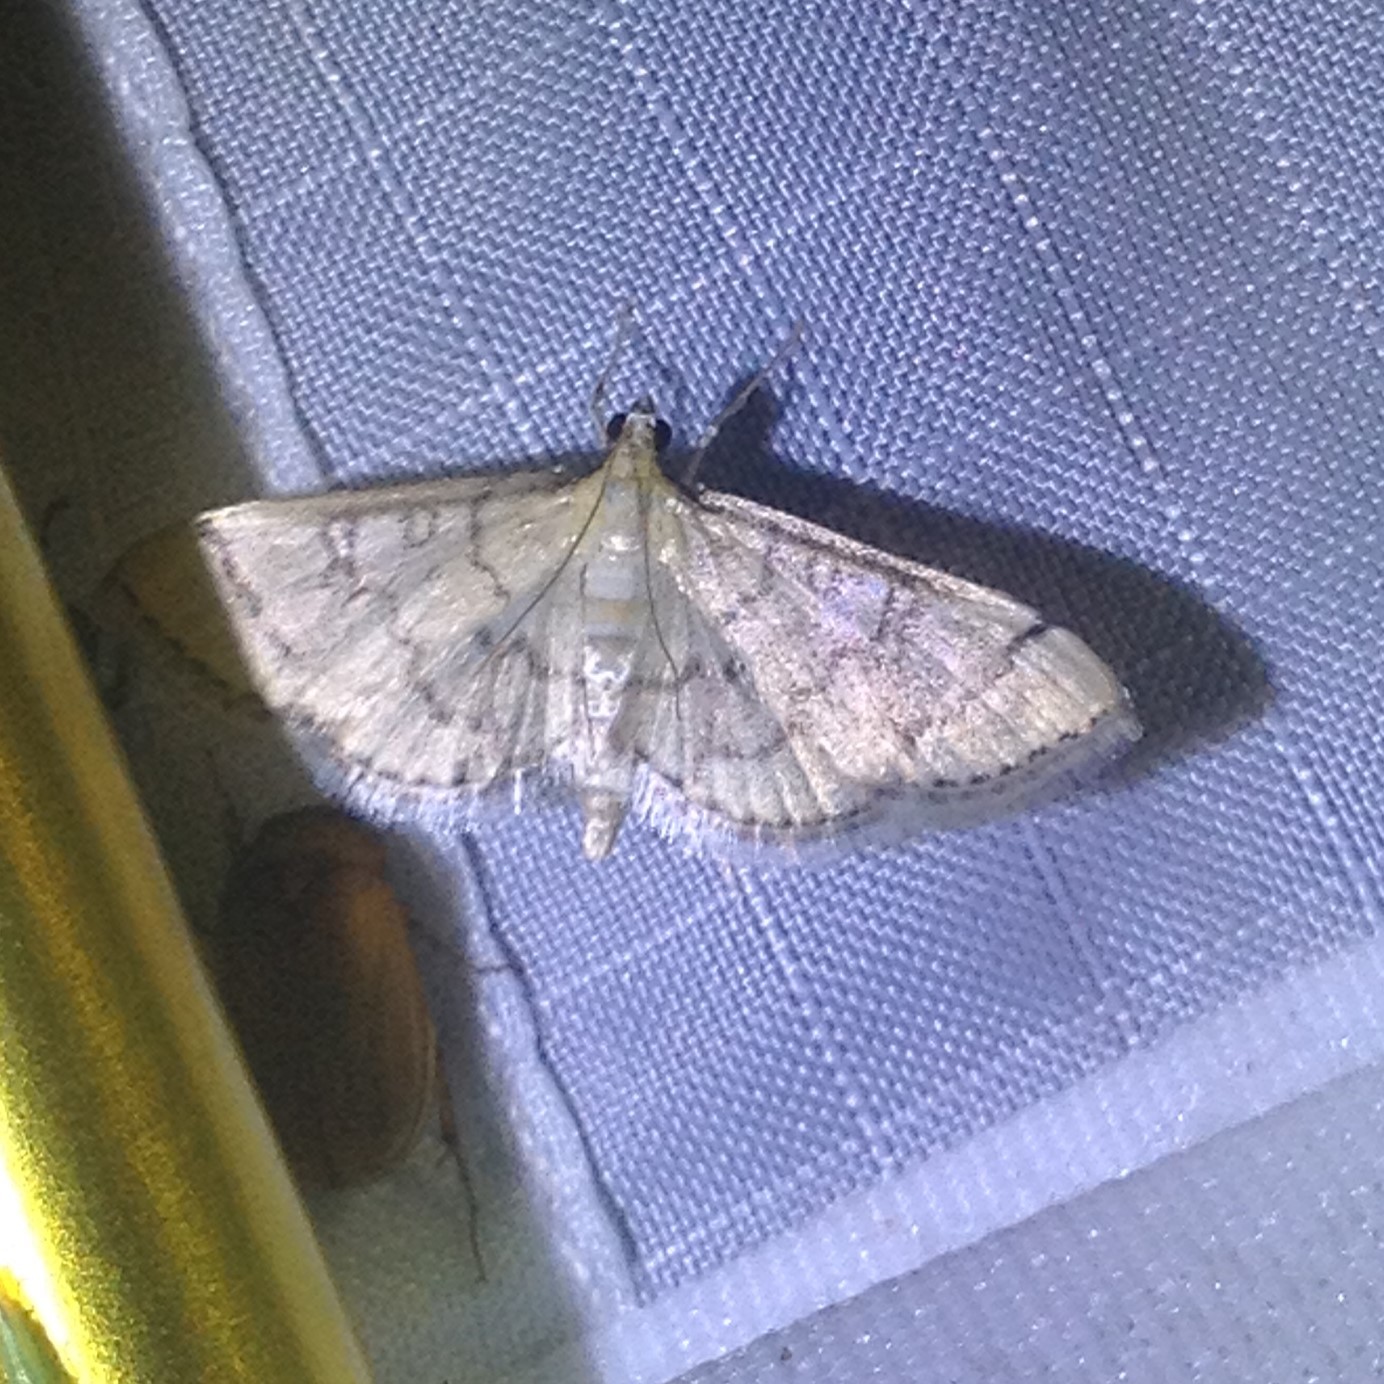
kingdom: Animalia
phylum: Arthropoda
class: Insecta
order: Lepidoptera
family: Crambidae
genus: Lamprosema
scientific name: Lamprosema Blepharomastix ranalis
